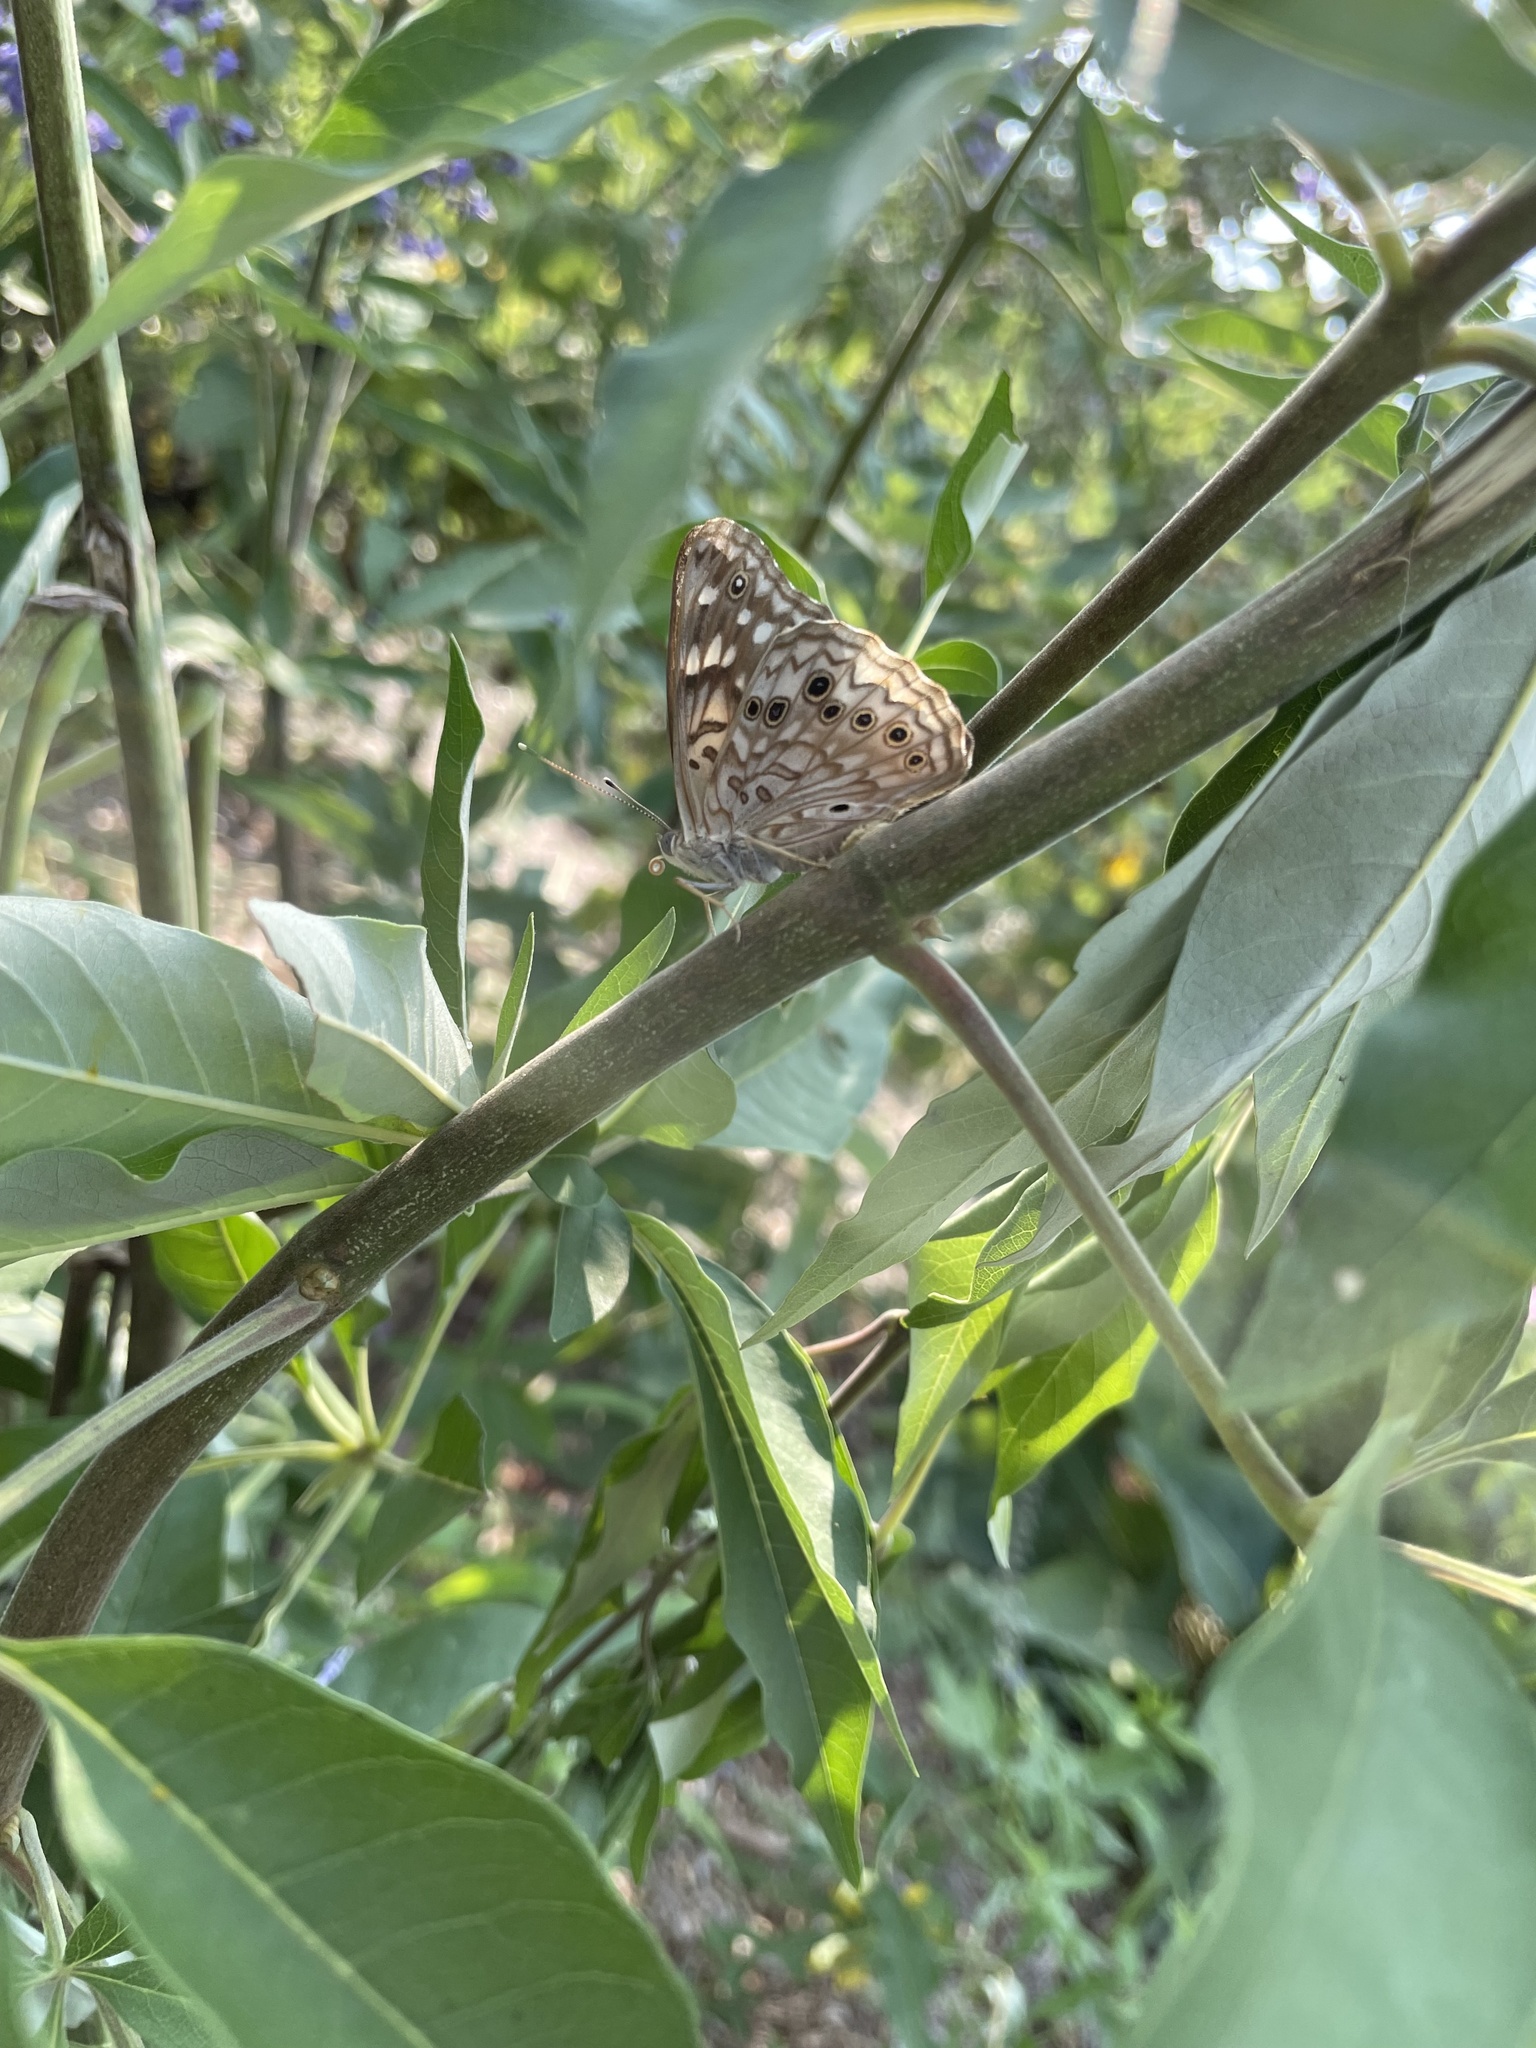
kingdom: Animalia
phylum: Arthropoda
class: Insecta
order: Lepidoptera
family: Nymphalidae
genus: Asterocampa
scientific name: Asterocampa celtis
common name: Hackberry emperor
